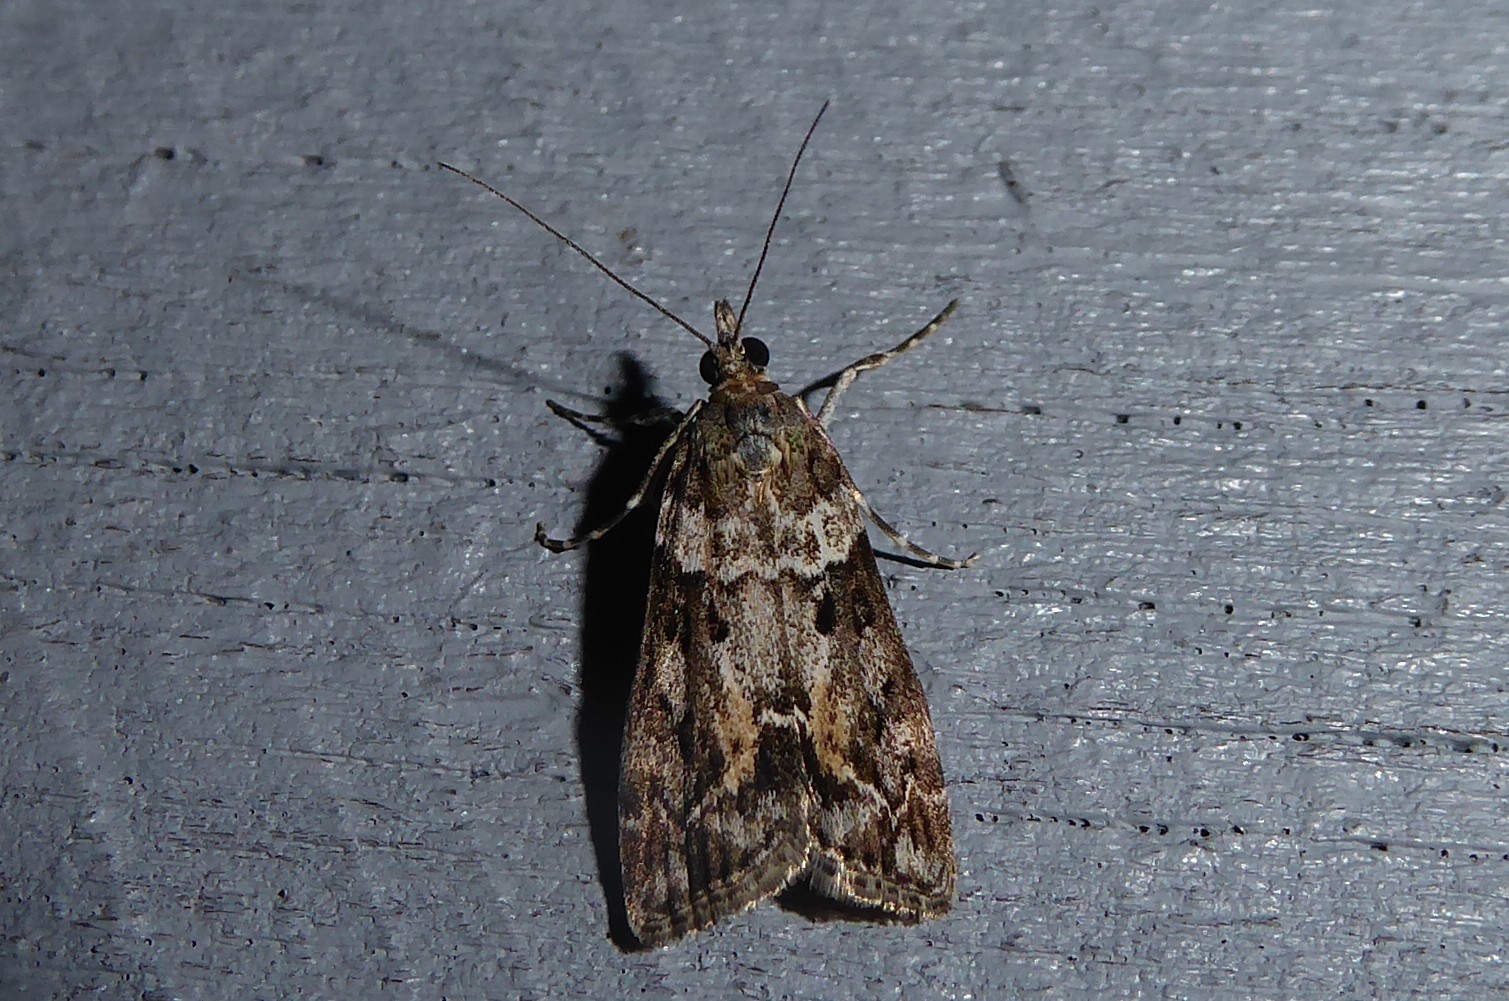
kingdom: Animalia
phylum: Arthropoda
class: Insecta
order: Lepidoptera
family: Crambidae
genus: Eudonia
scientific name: Eudonia submarginalis
